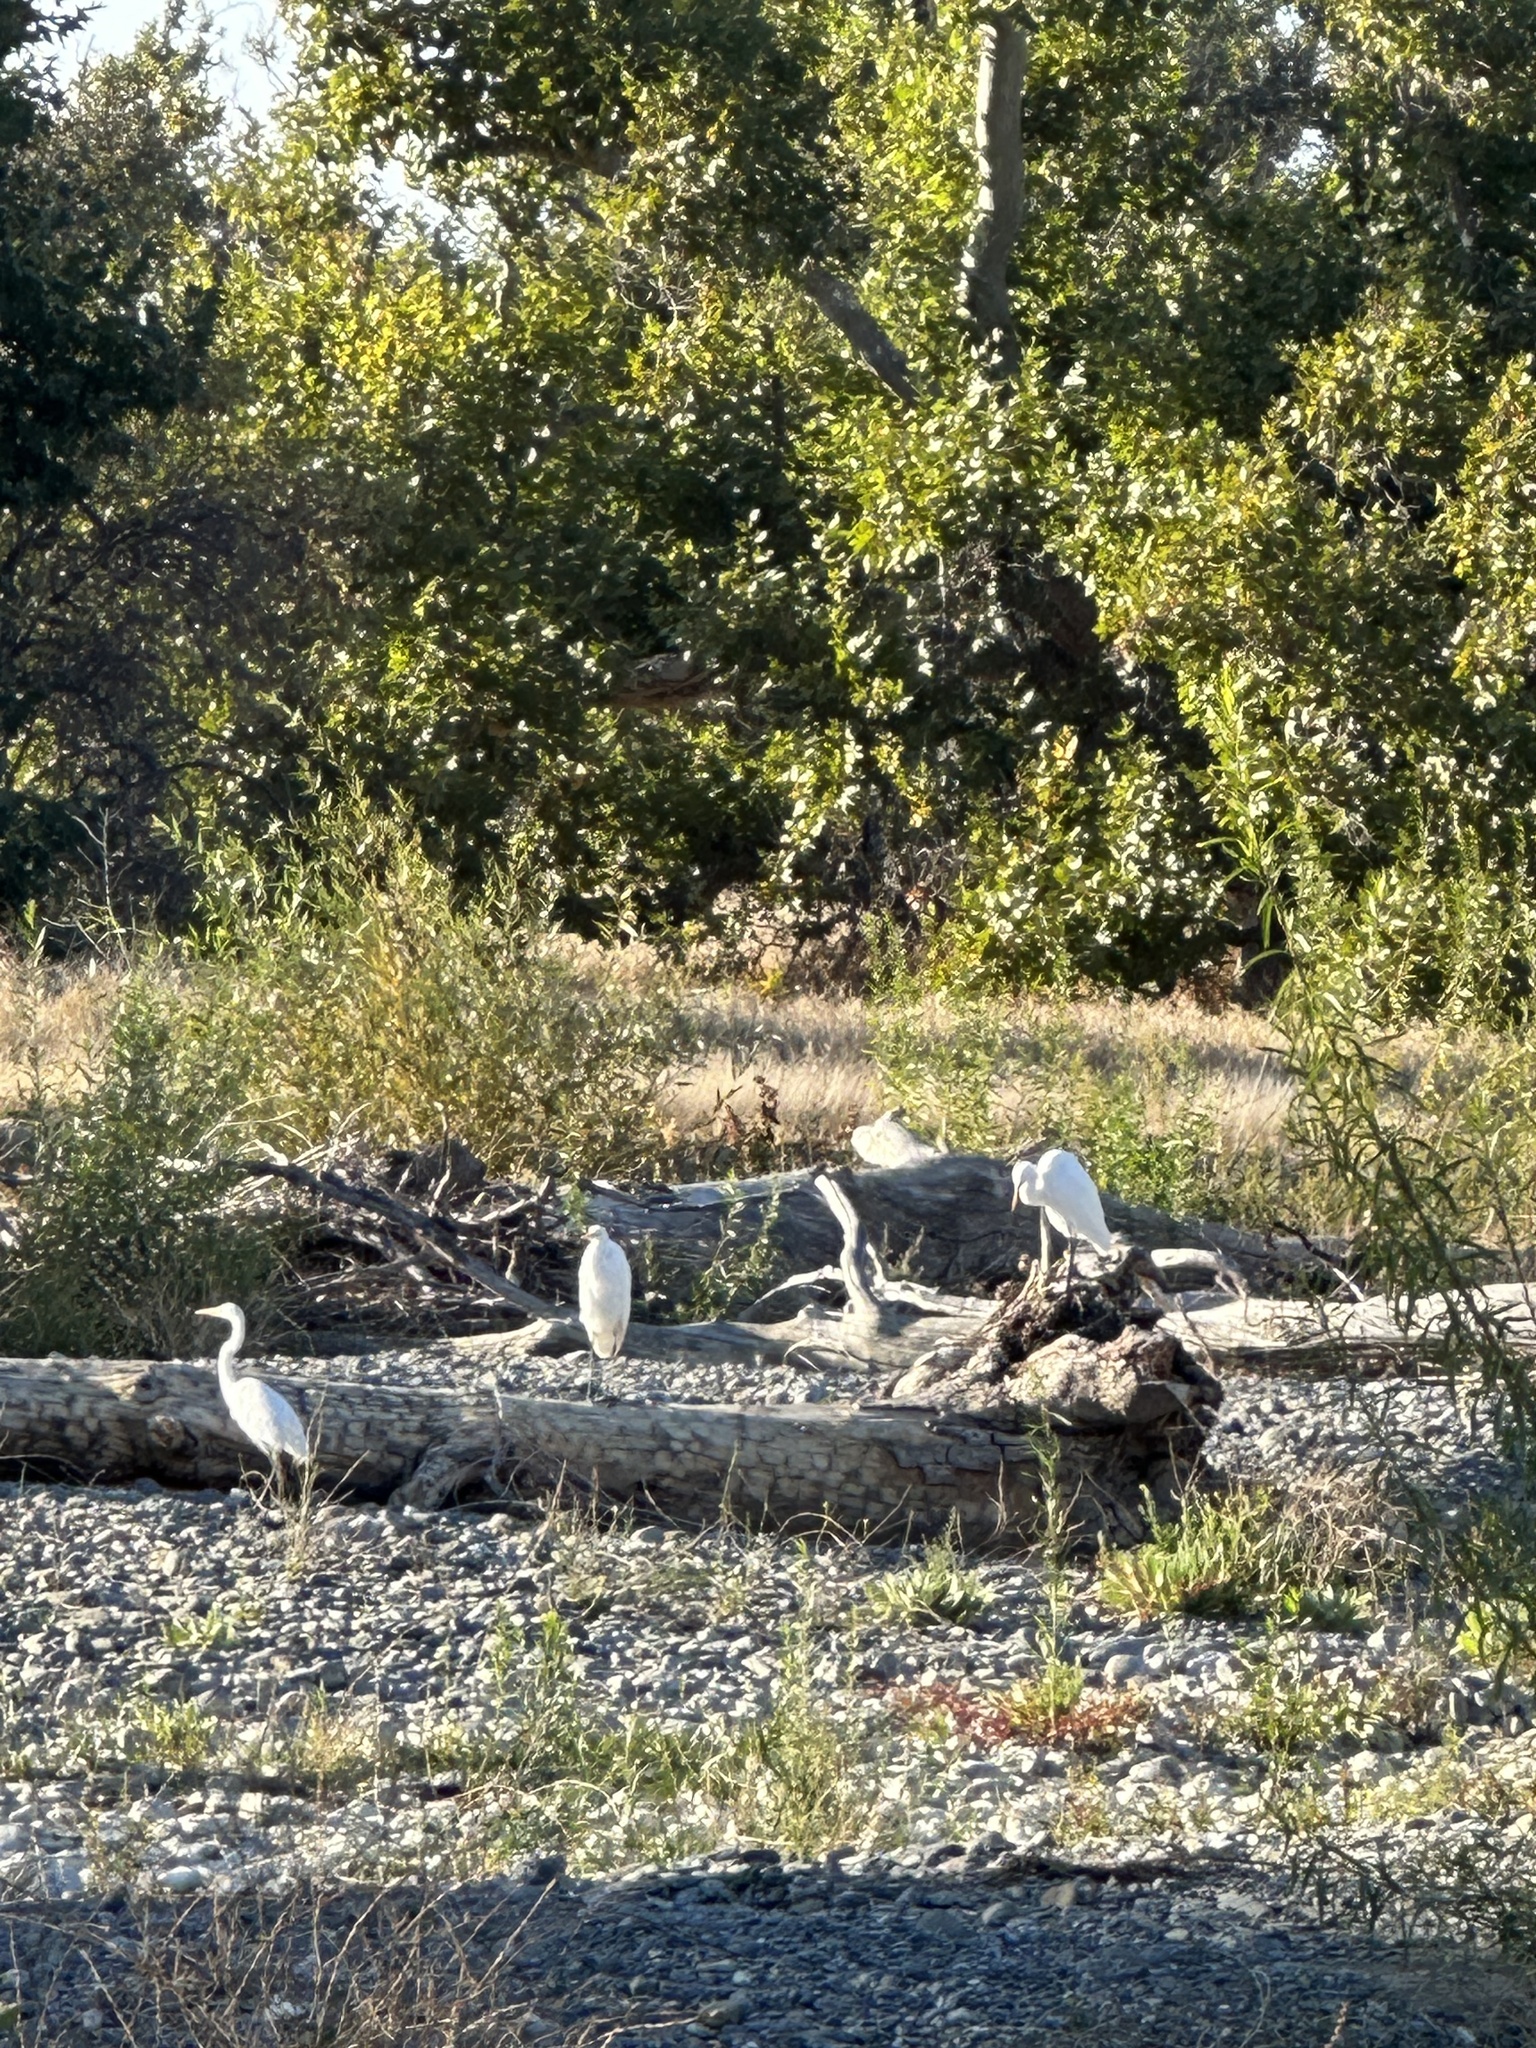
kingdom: Animalia
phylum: Chordata
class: Aves
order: Pelecaniformes
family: Ardeidae
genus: Ardea
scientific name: Ardea alba
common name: Great egret
